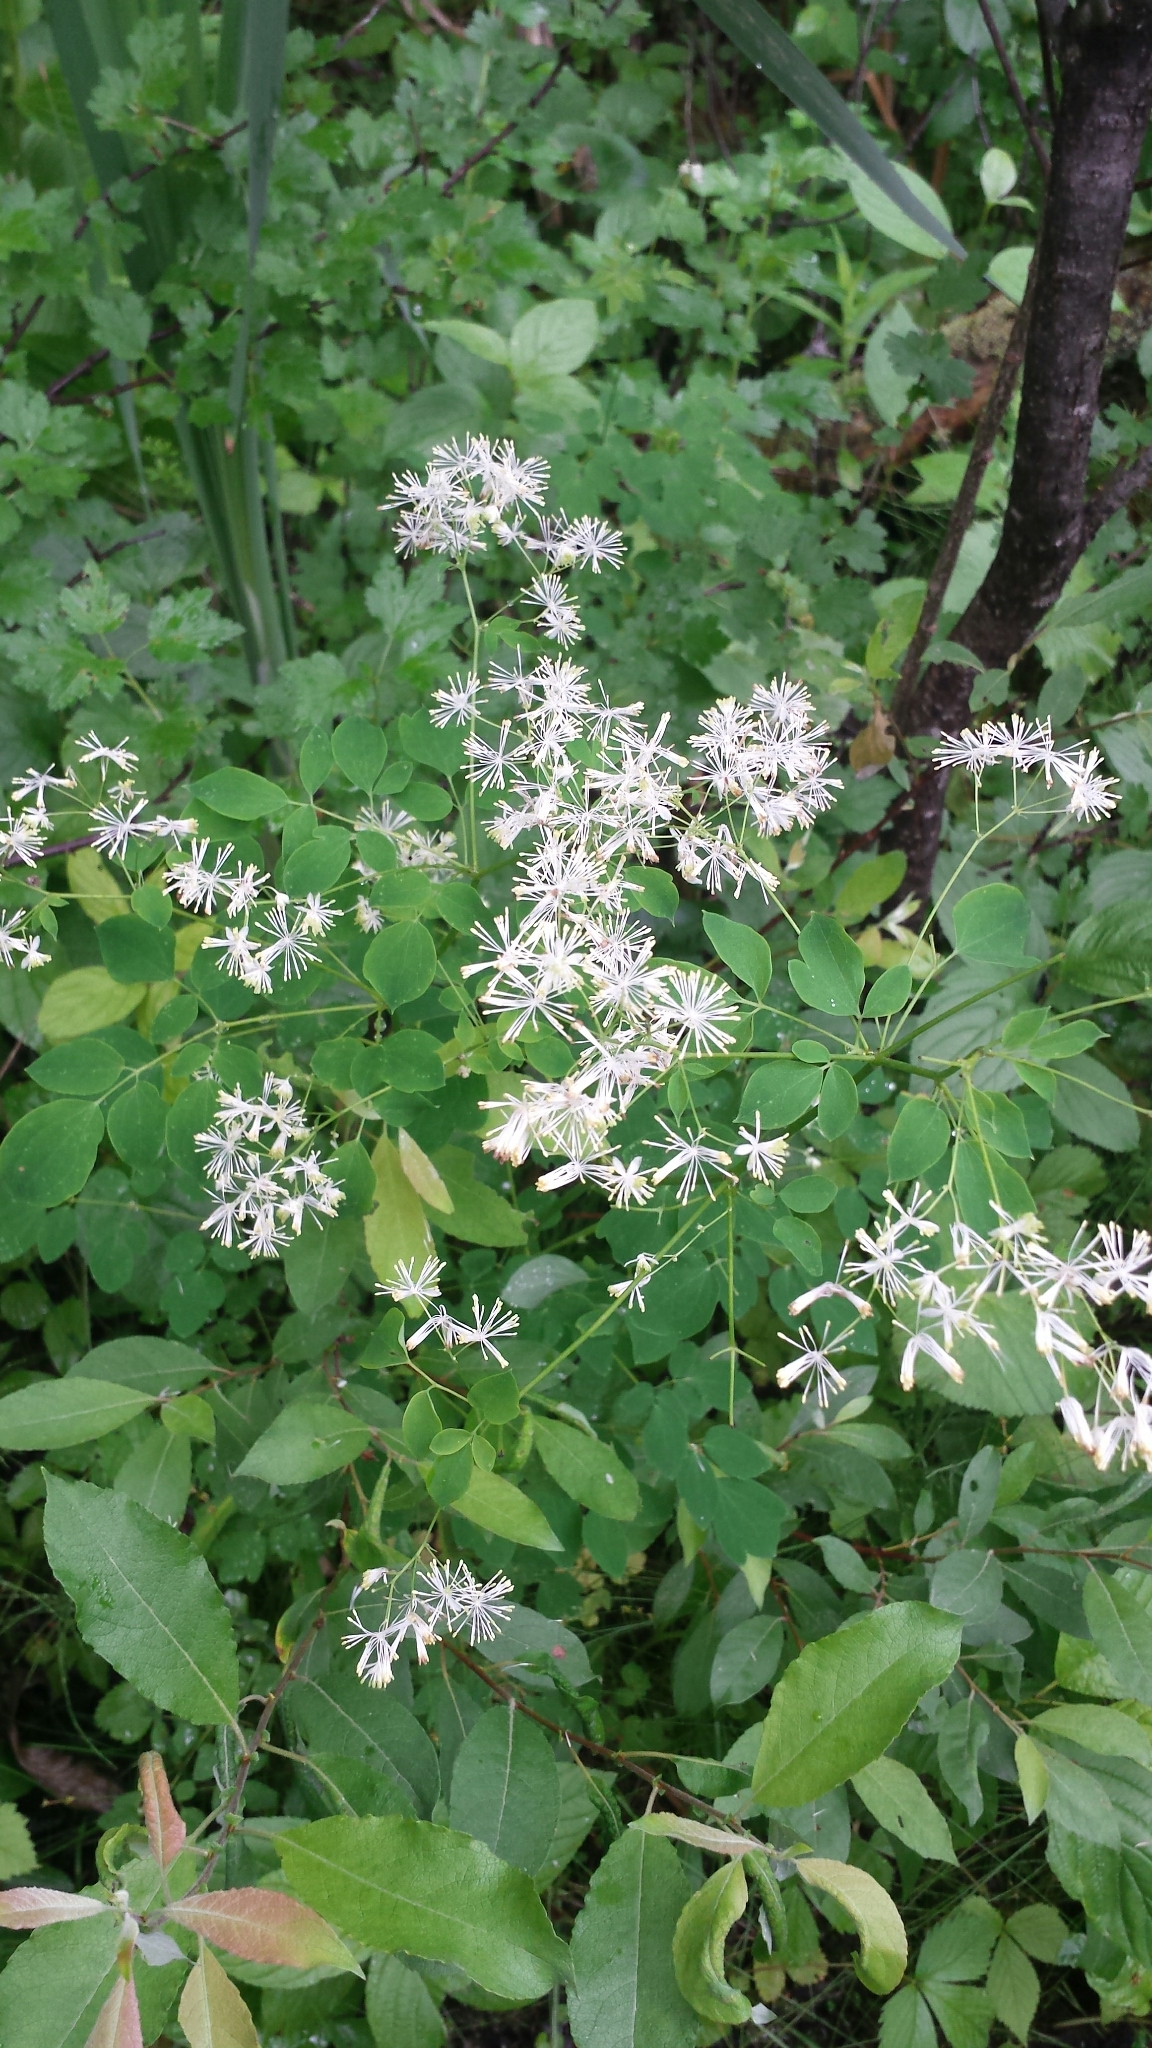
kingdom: Plantae
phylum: Tracheophyta
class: Magnoliopsida
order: Ranunculales
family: Ranunculaceae
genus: Thalictrum
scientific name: Thalictrum pubescens
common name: King-of-the-meadow
